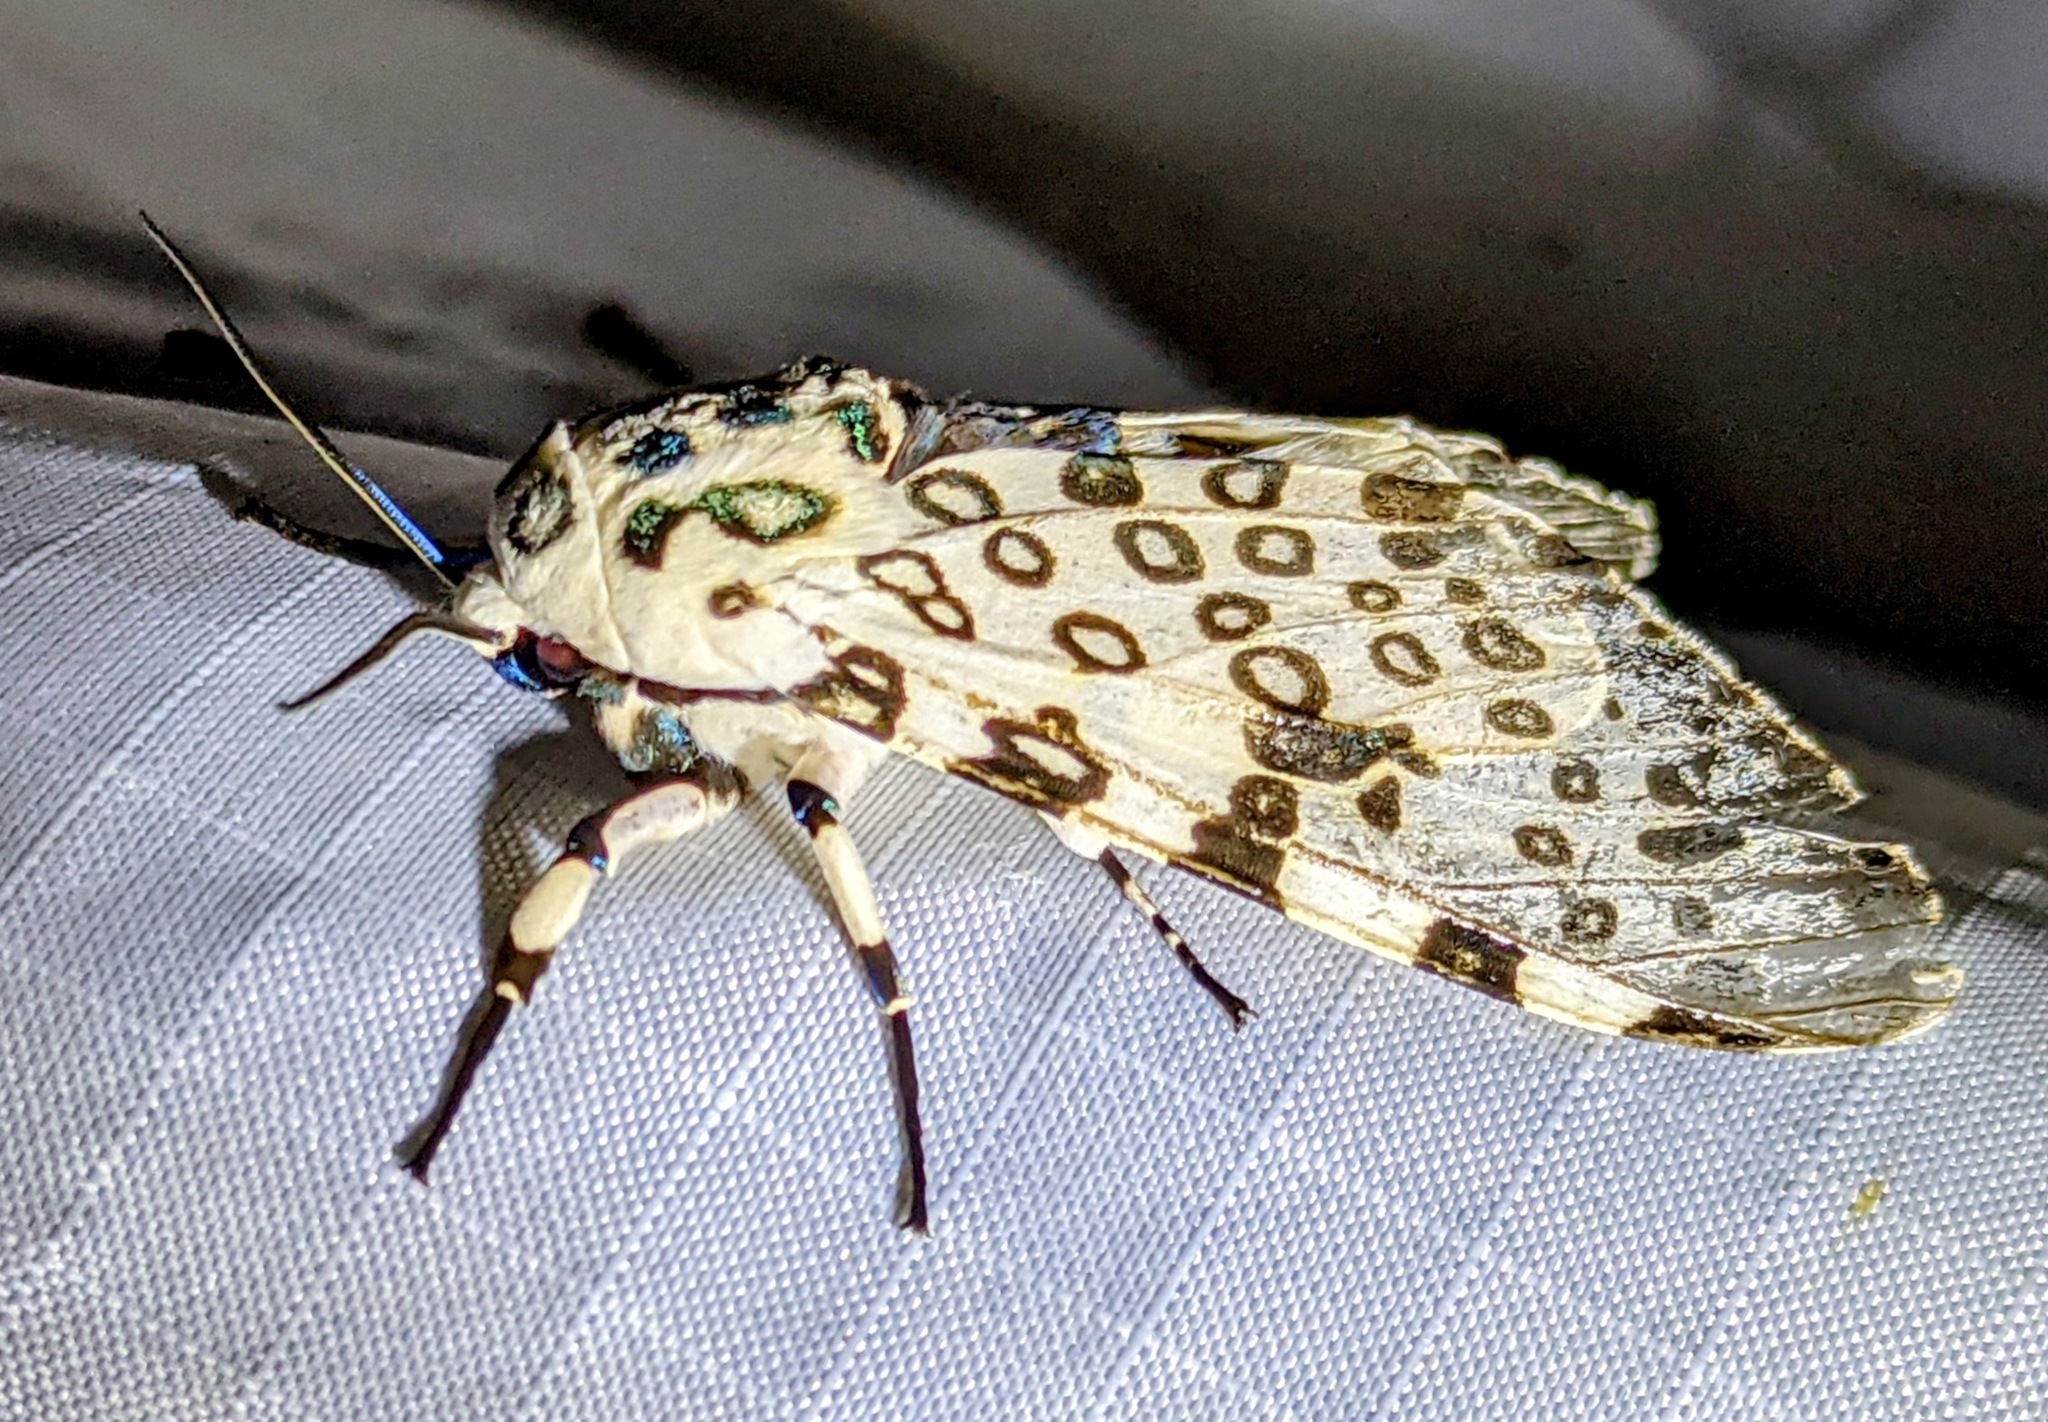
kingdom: Animalia
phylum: Arthropoda
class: Insecta
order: Lepidoptera
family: Erebidae
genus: Hypercompe
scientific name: Hypercompe scribonia
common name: Giant leopard moth
